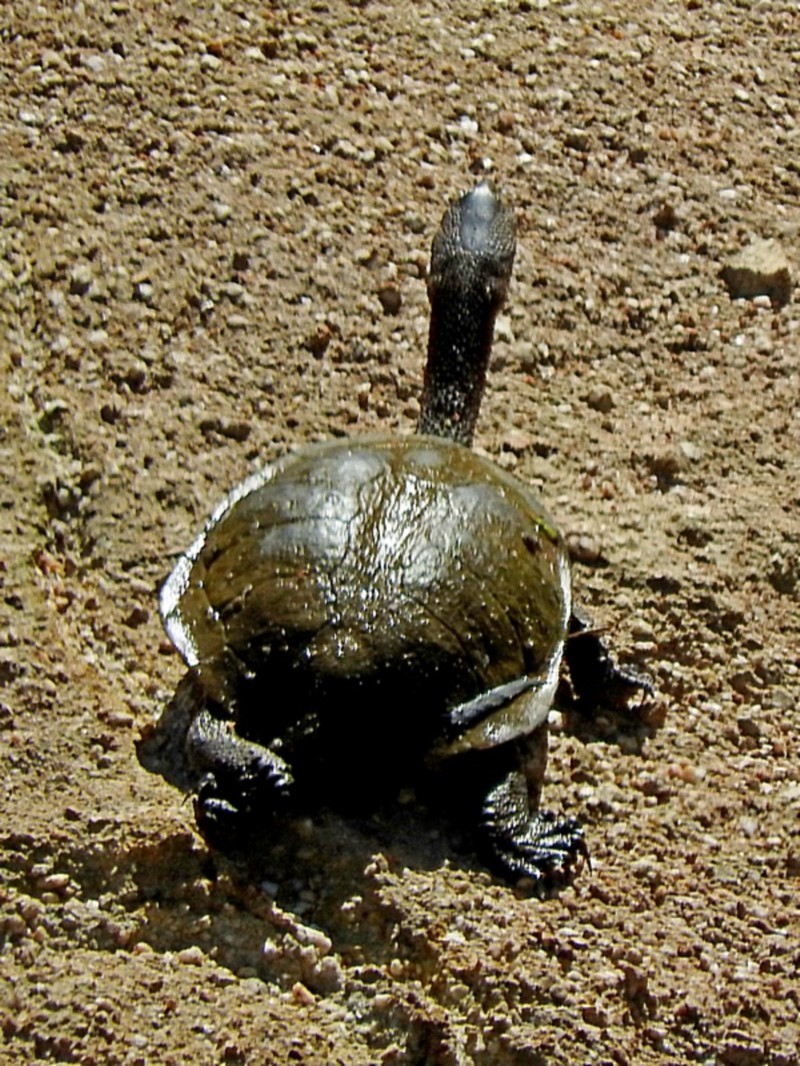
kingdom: Animalia
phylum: Chordata
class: Testudines
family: Chelidae
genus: Chelodina
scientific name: Chelodina longicollis
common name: Eastern snake-necked turtle
